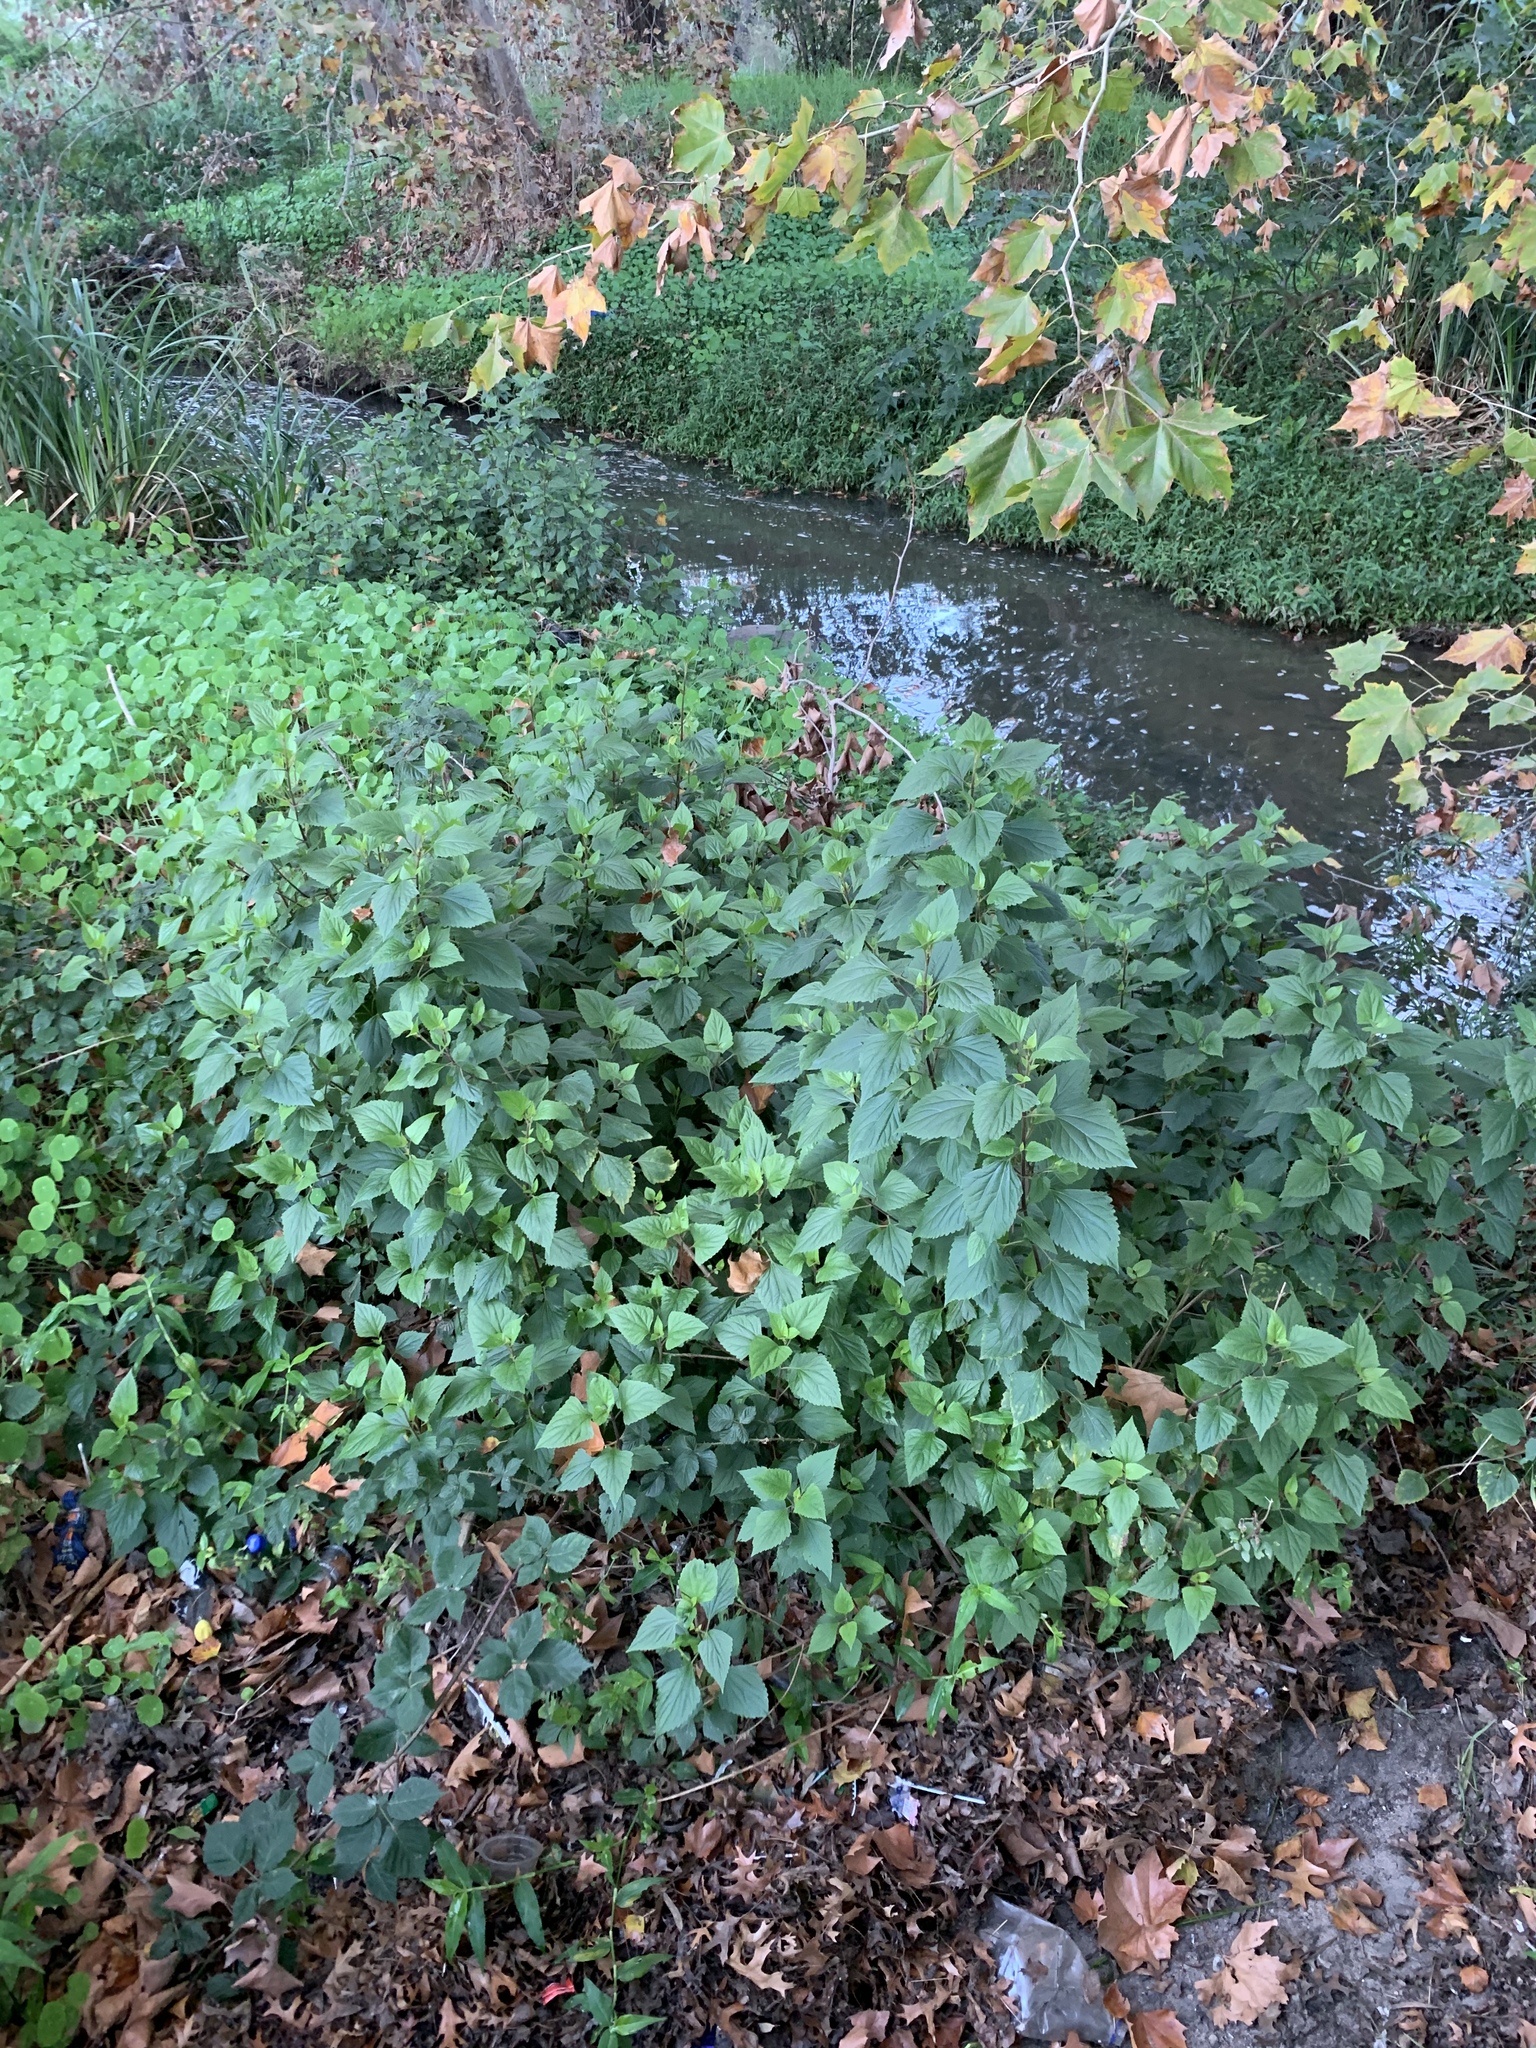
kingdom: Plantae
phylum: Tracheophyta
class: Magnoliopsida
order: Asterales
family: Asteraceae
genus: Ageratina
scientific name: Ageratina adenophora
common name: Sticky snakeroot
